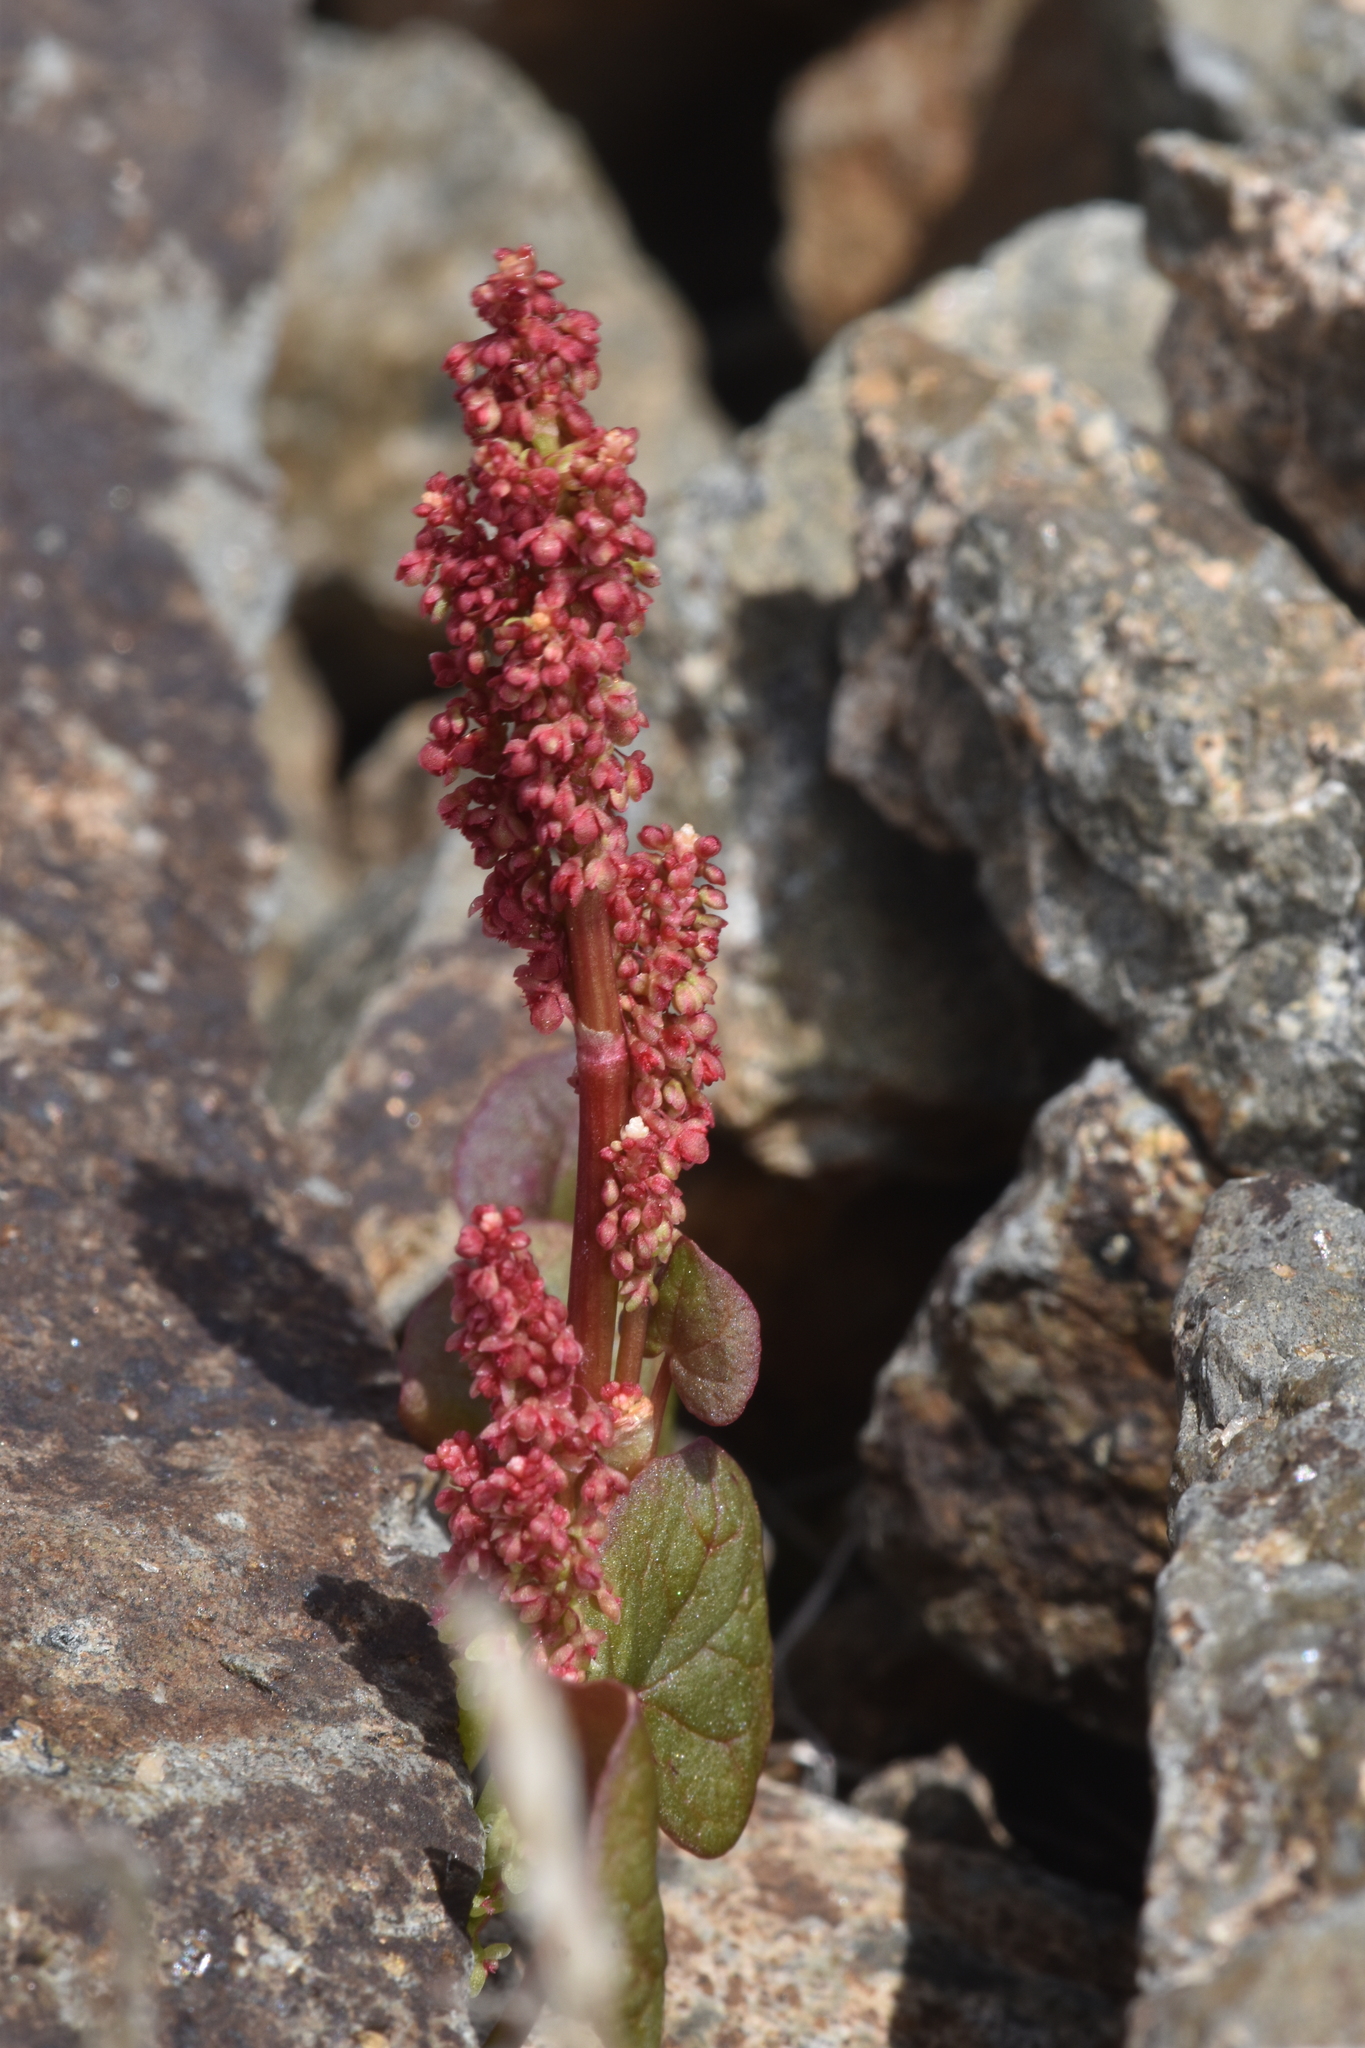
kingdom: Plantae
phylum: Tracheophyta
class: Magnoliopsida
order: Caryophyllales
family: Polygonaceae
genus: Oxyria
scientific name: Oxyria digyna
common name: Alpine mountain-sorrel
